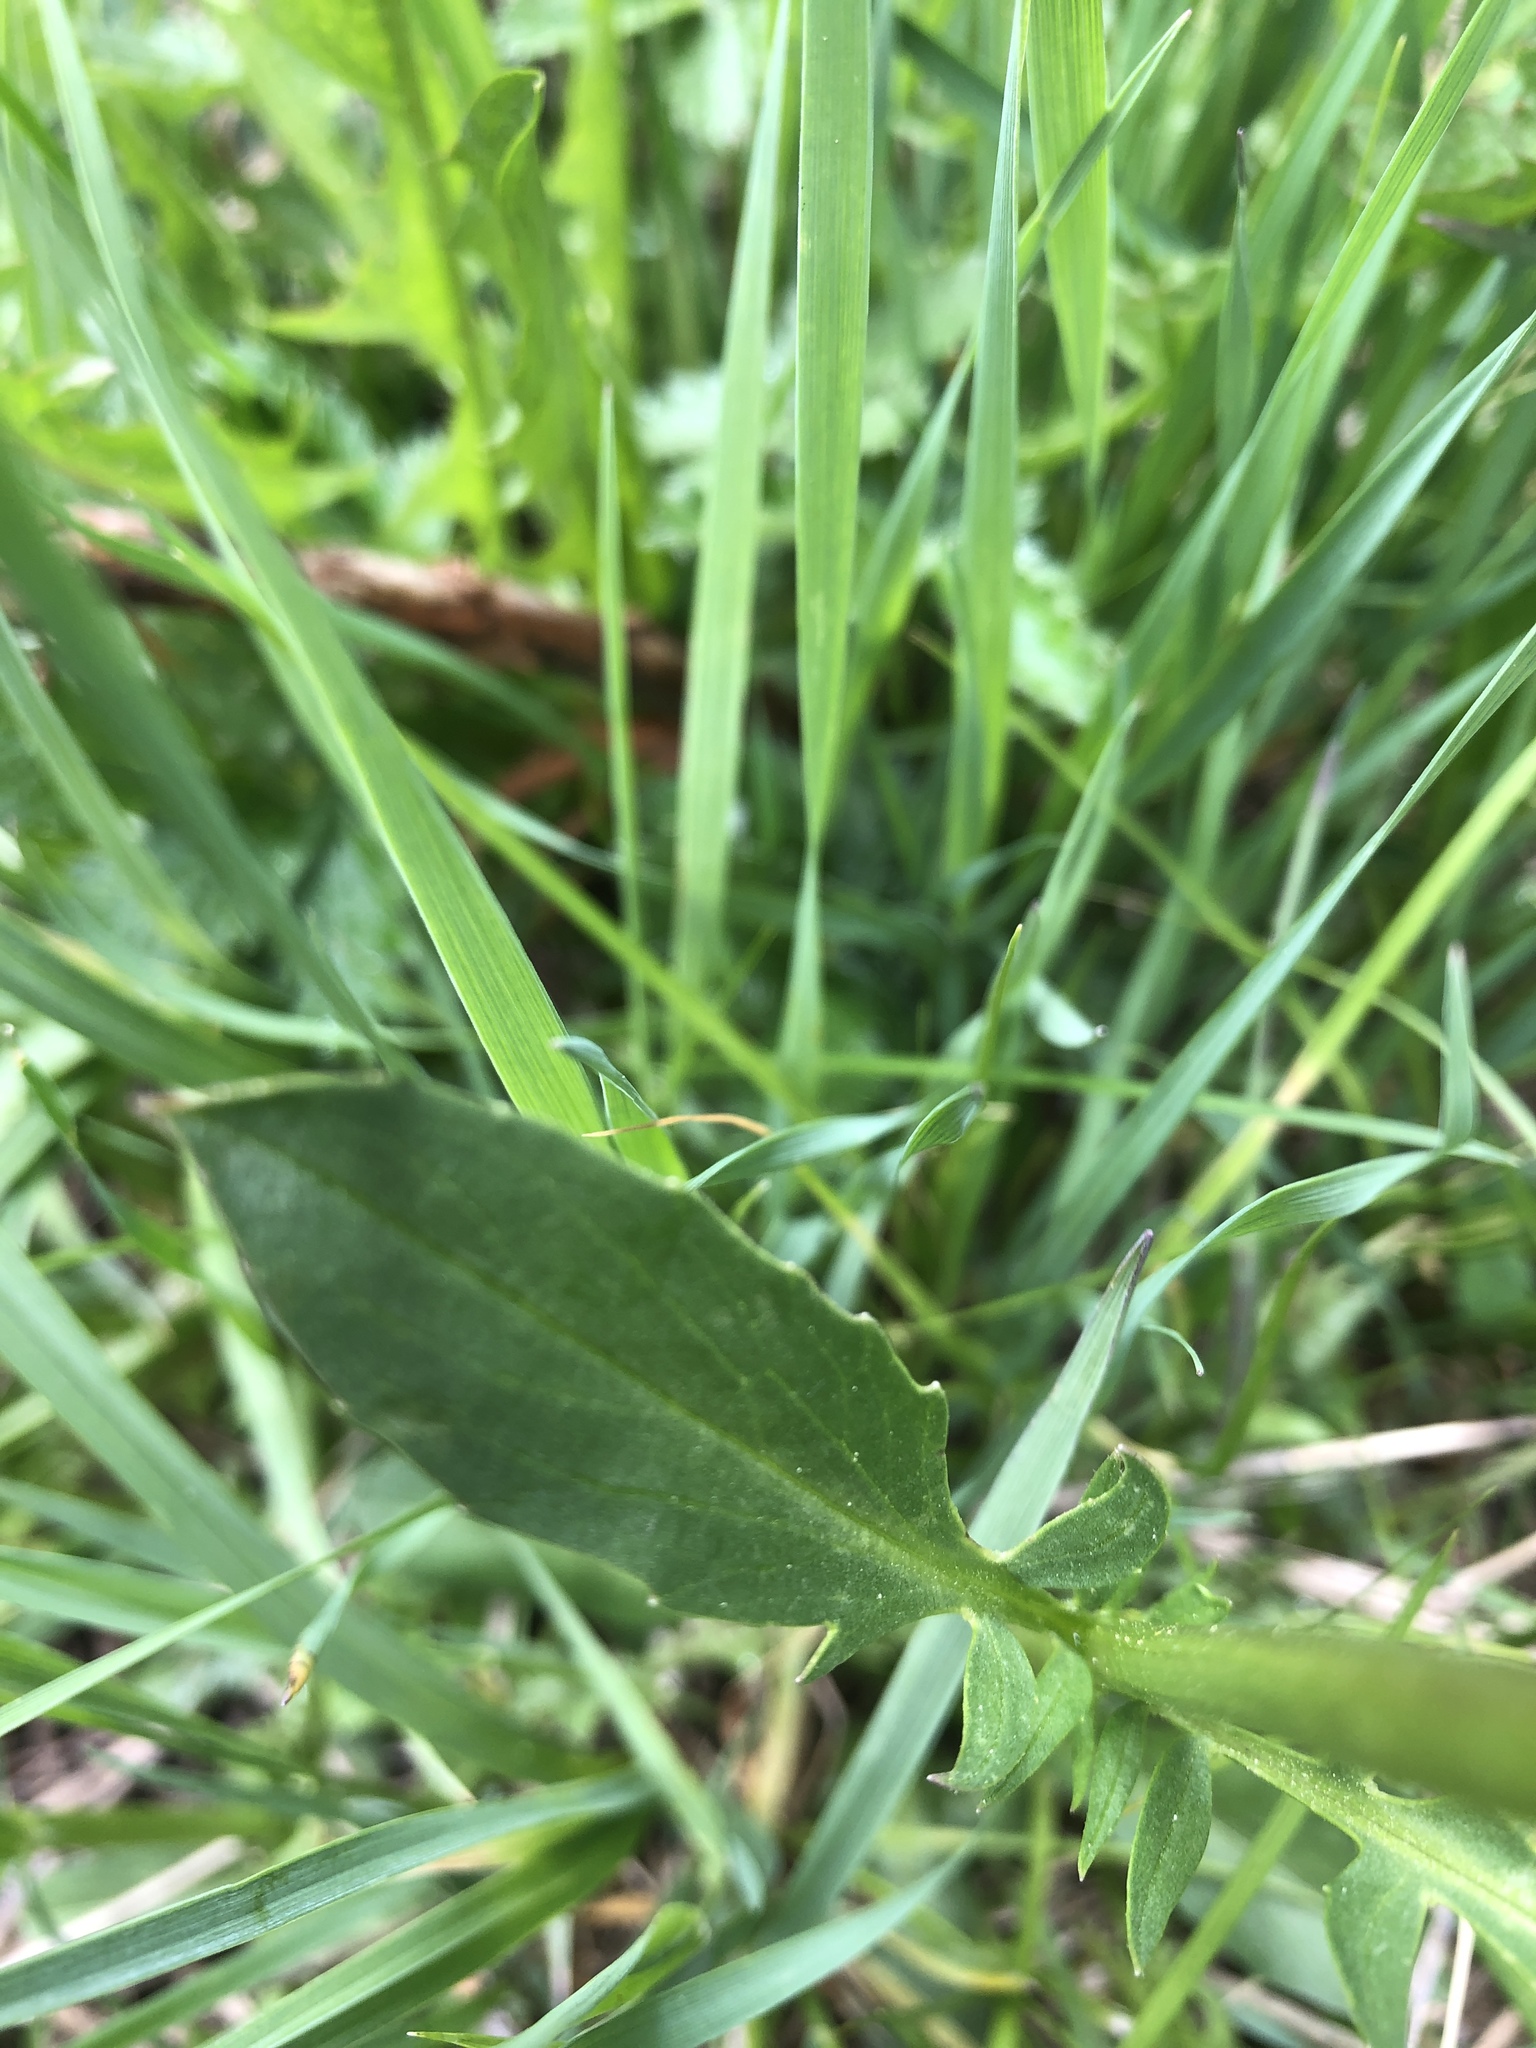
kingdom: Plantae
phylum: Tracheophyta
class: Magnoliopsida
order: Dipsacales
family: Caprifoliaceae
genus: Valeriana
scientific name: Valeriana capitata
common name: Capitate valerian
